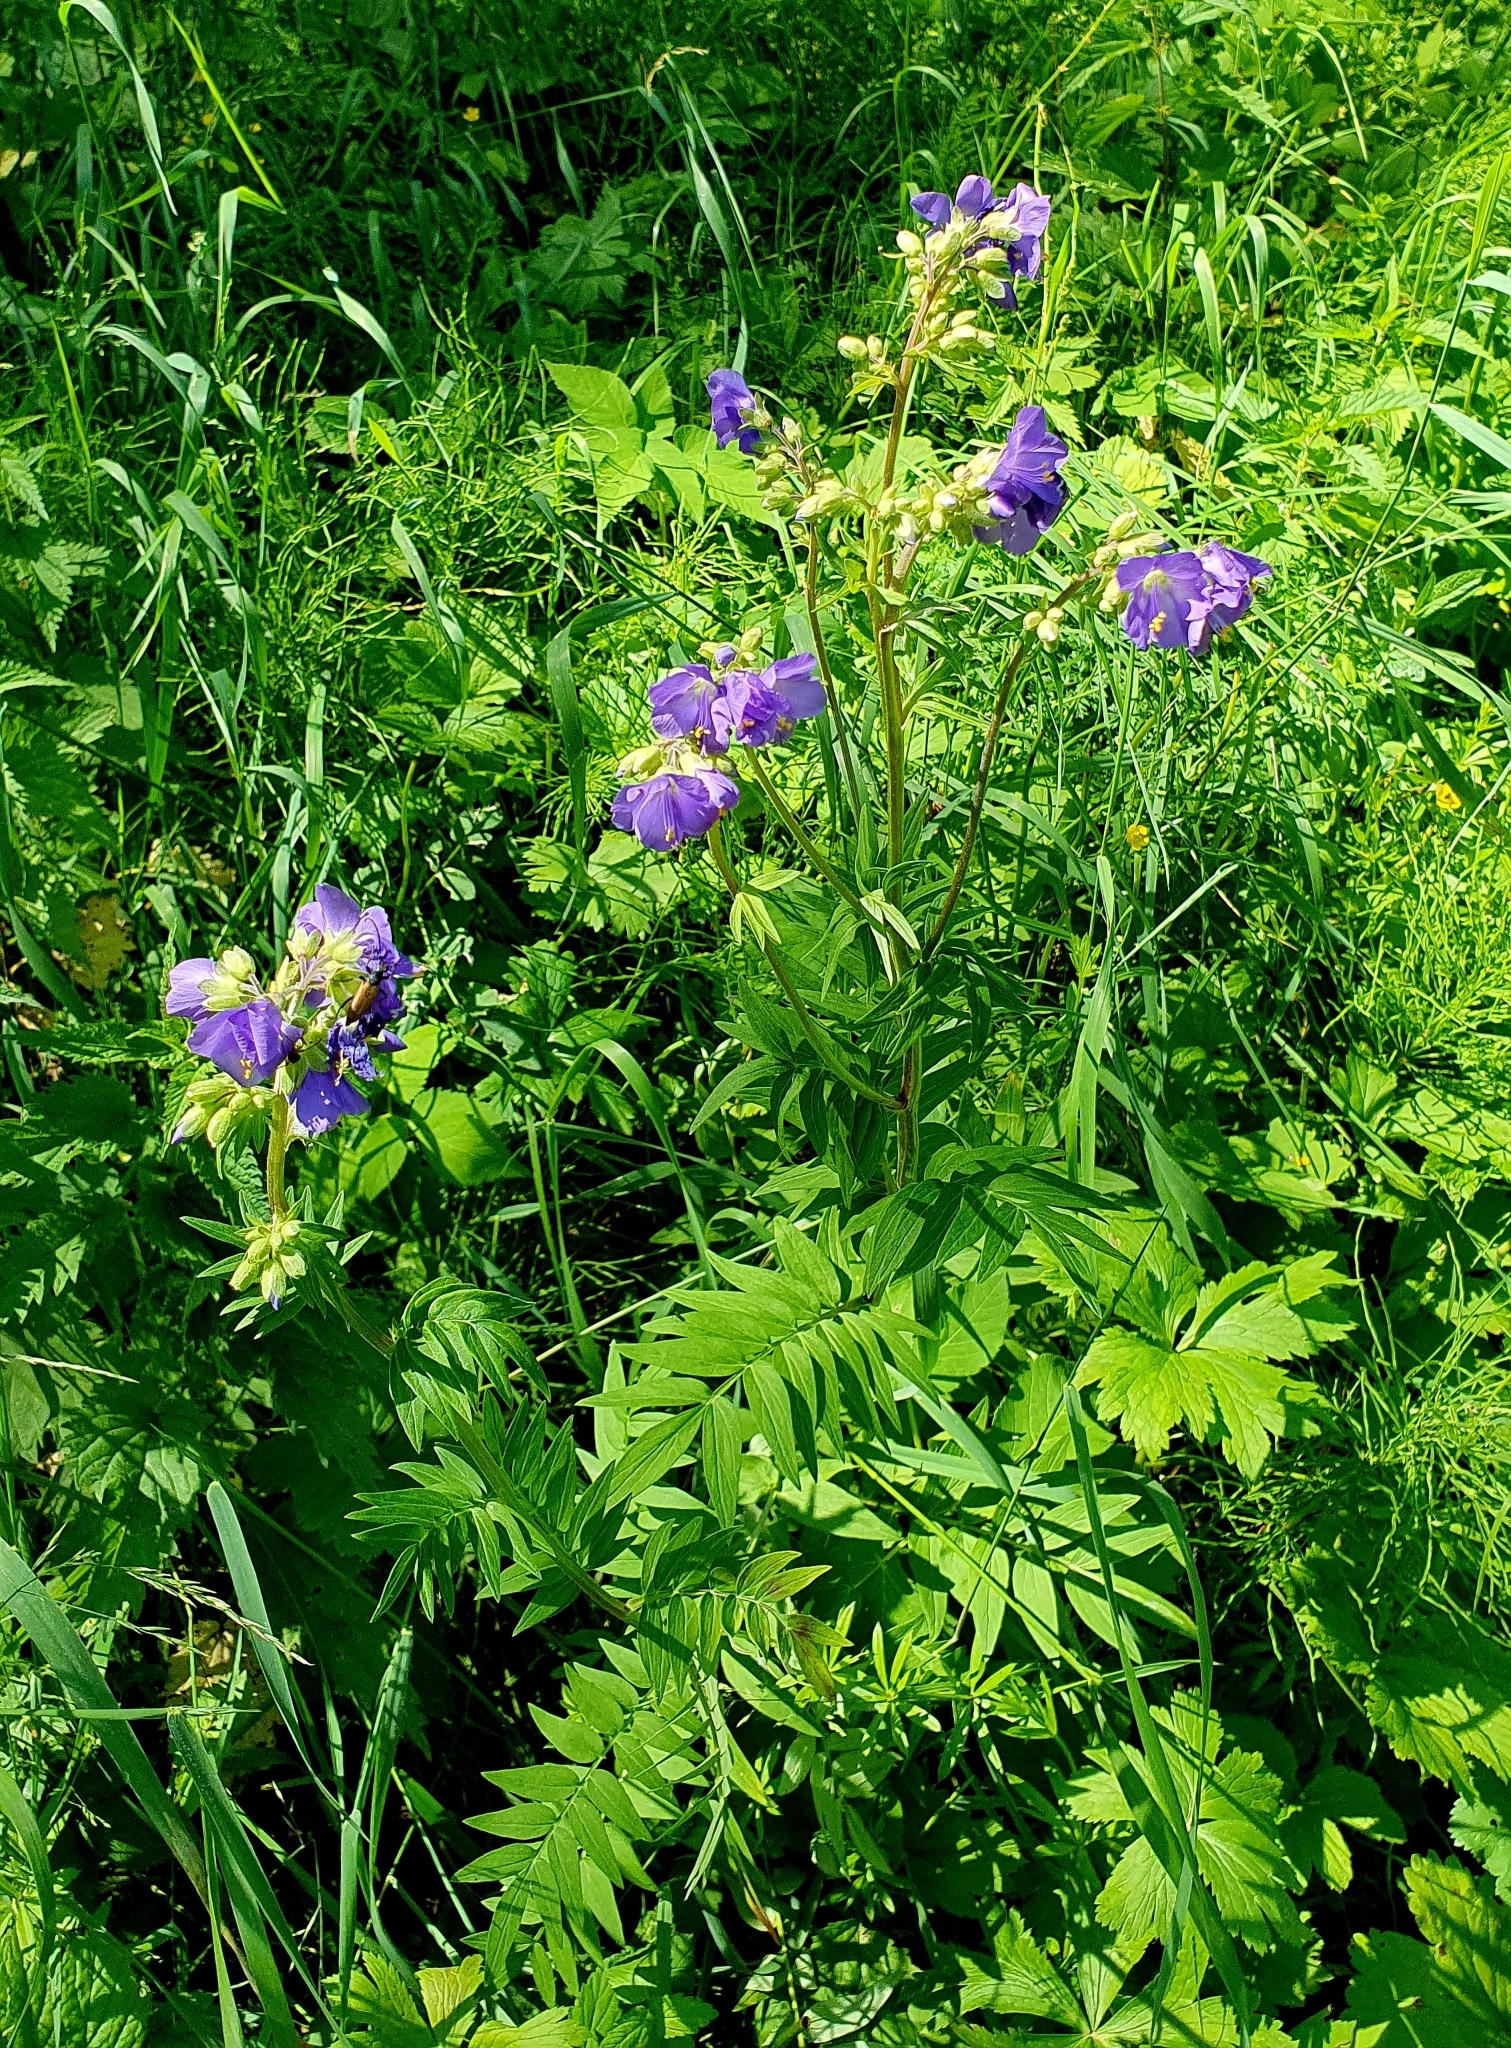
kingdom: Plantae
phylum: Tracheophyta
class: Magnoliopsida
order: Ericales
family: Polemoniaceae
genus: Polemonium
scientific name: Polemonium caeruleum
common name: Jacob's-ladder
